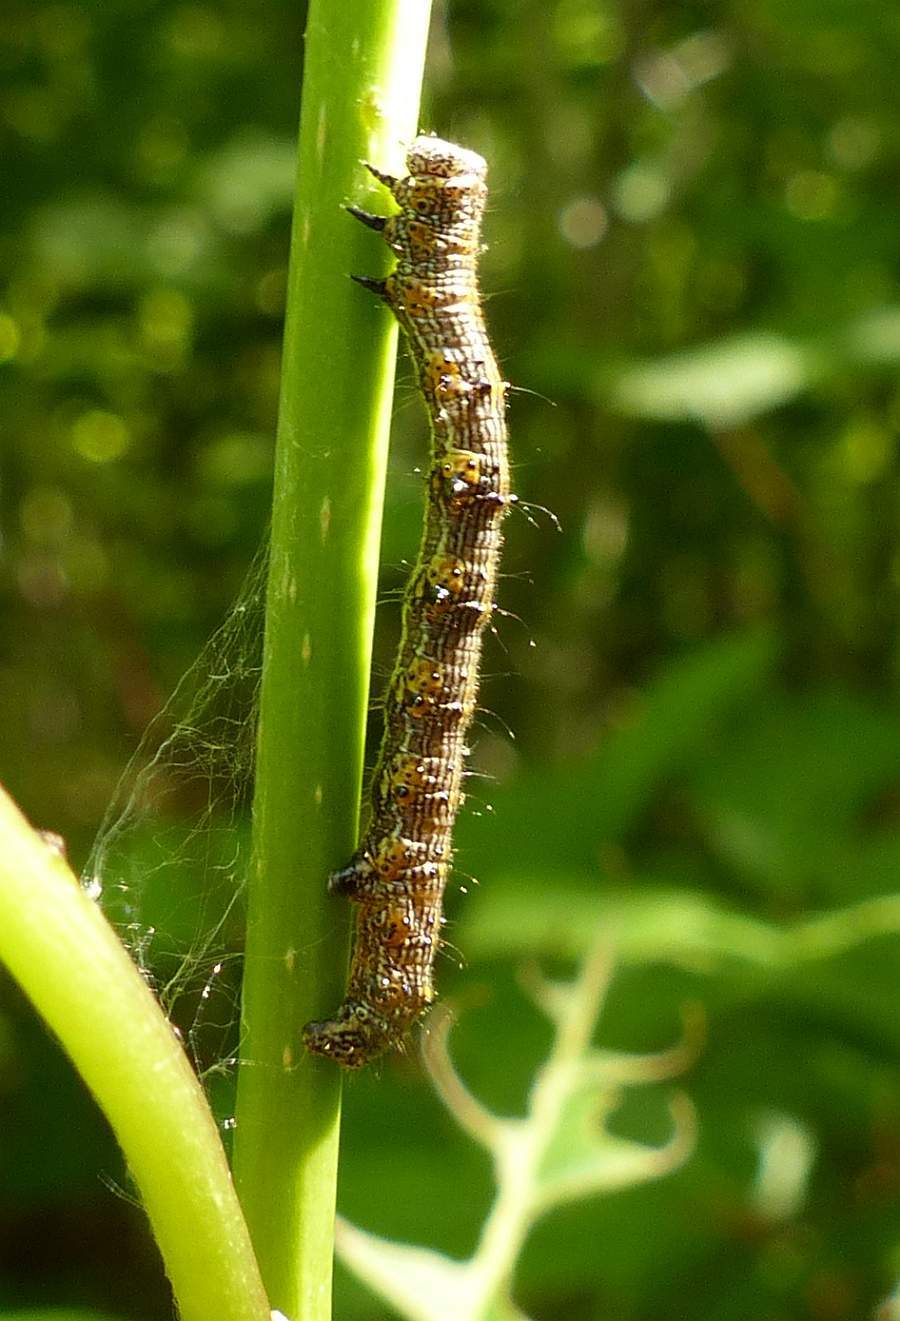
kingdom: Animalia
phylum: Arthropoda
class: Insecta
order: Lepidoptera
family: Geometridae
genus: Phigalia
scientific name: Phigalia titea
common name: Spiny looper
